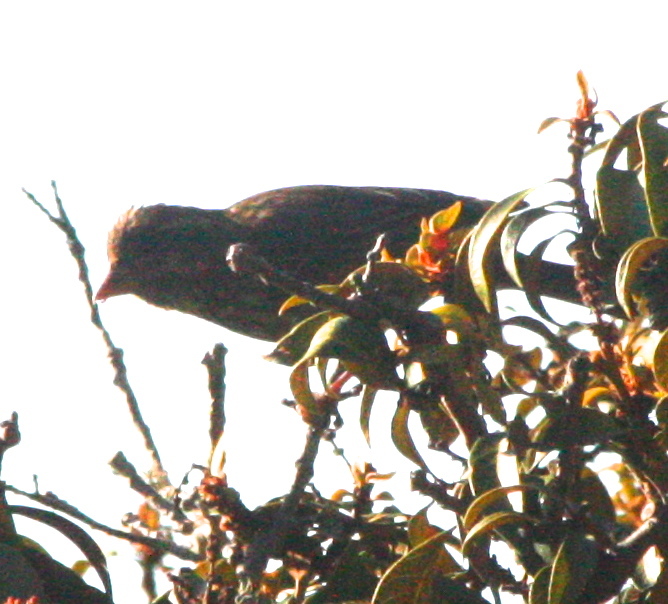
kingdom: Animalia
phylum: Chordata
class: Aves
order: Passeriformes
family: Fringillidae
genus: Haemorhous
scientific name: Haemorhous purpureus
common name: Purple finch
